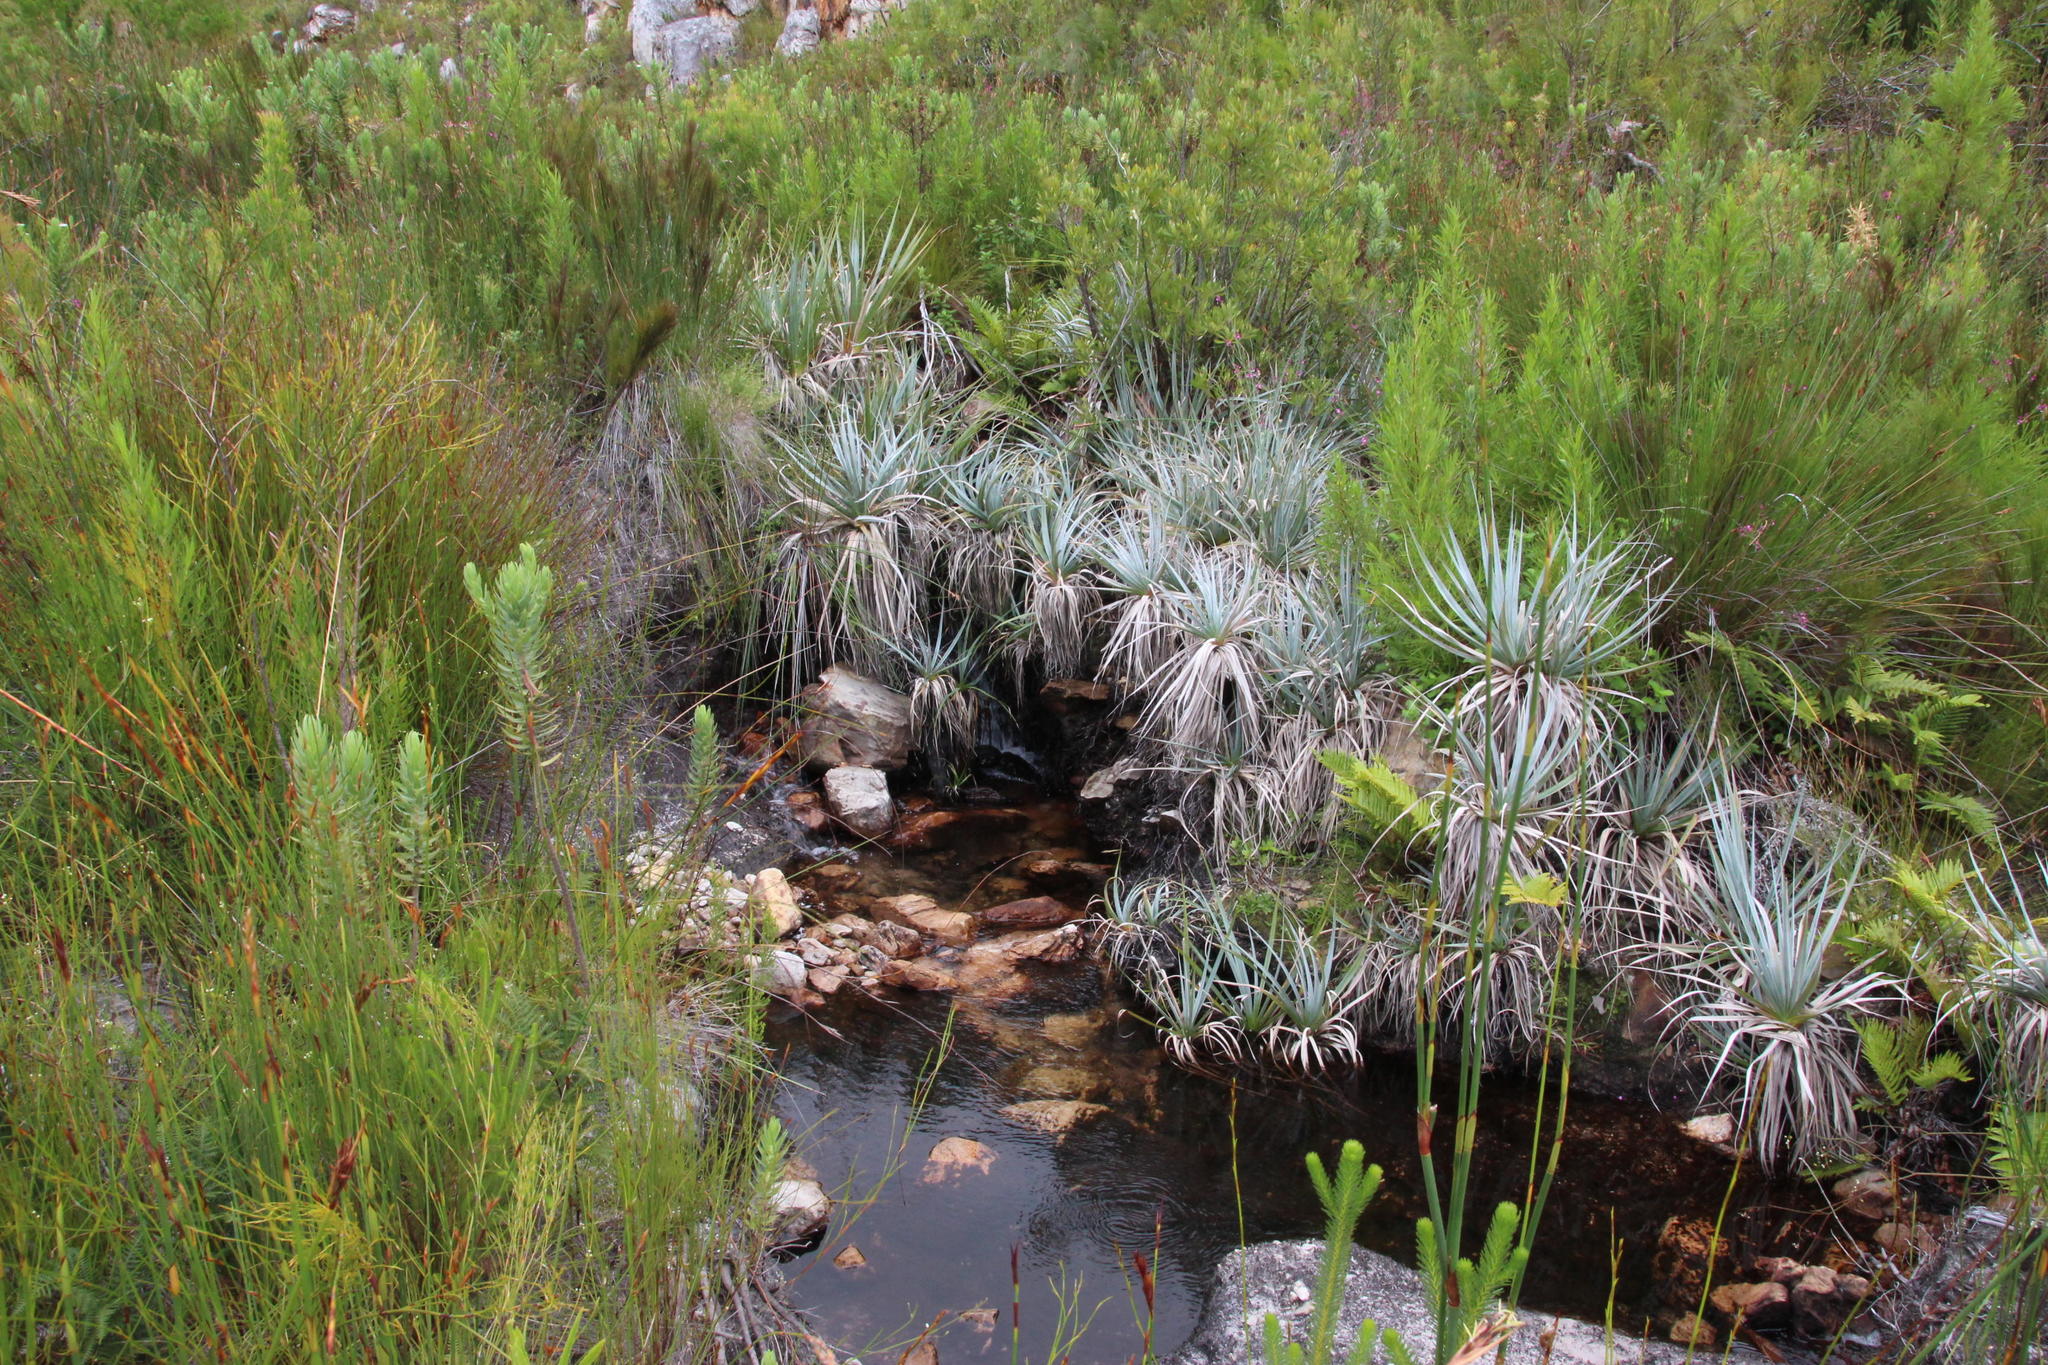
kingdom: Plantae
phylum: Tracheophyta
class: Liliopsida
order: Poales
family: Thurniaceae
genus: Prionium
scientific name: Prionium serratum
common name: Palmiet
